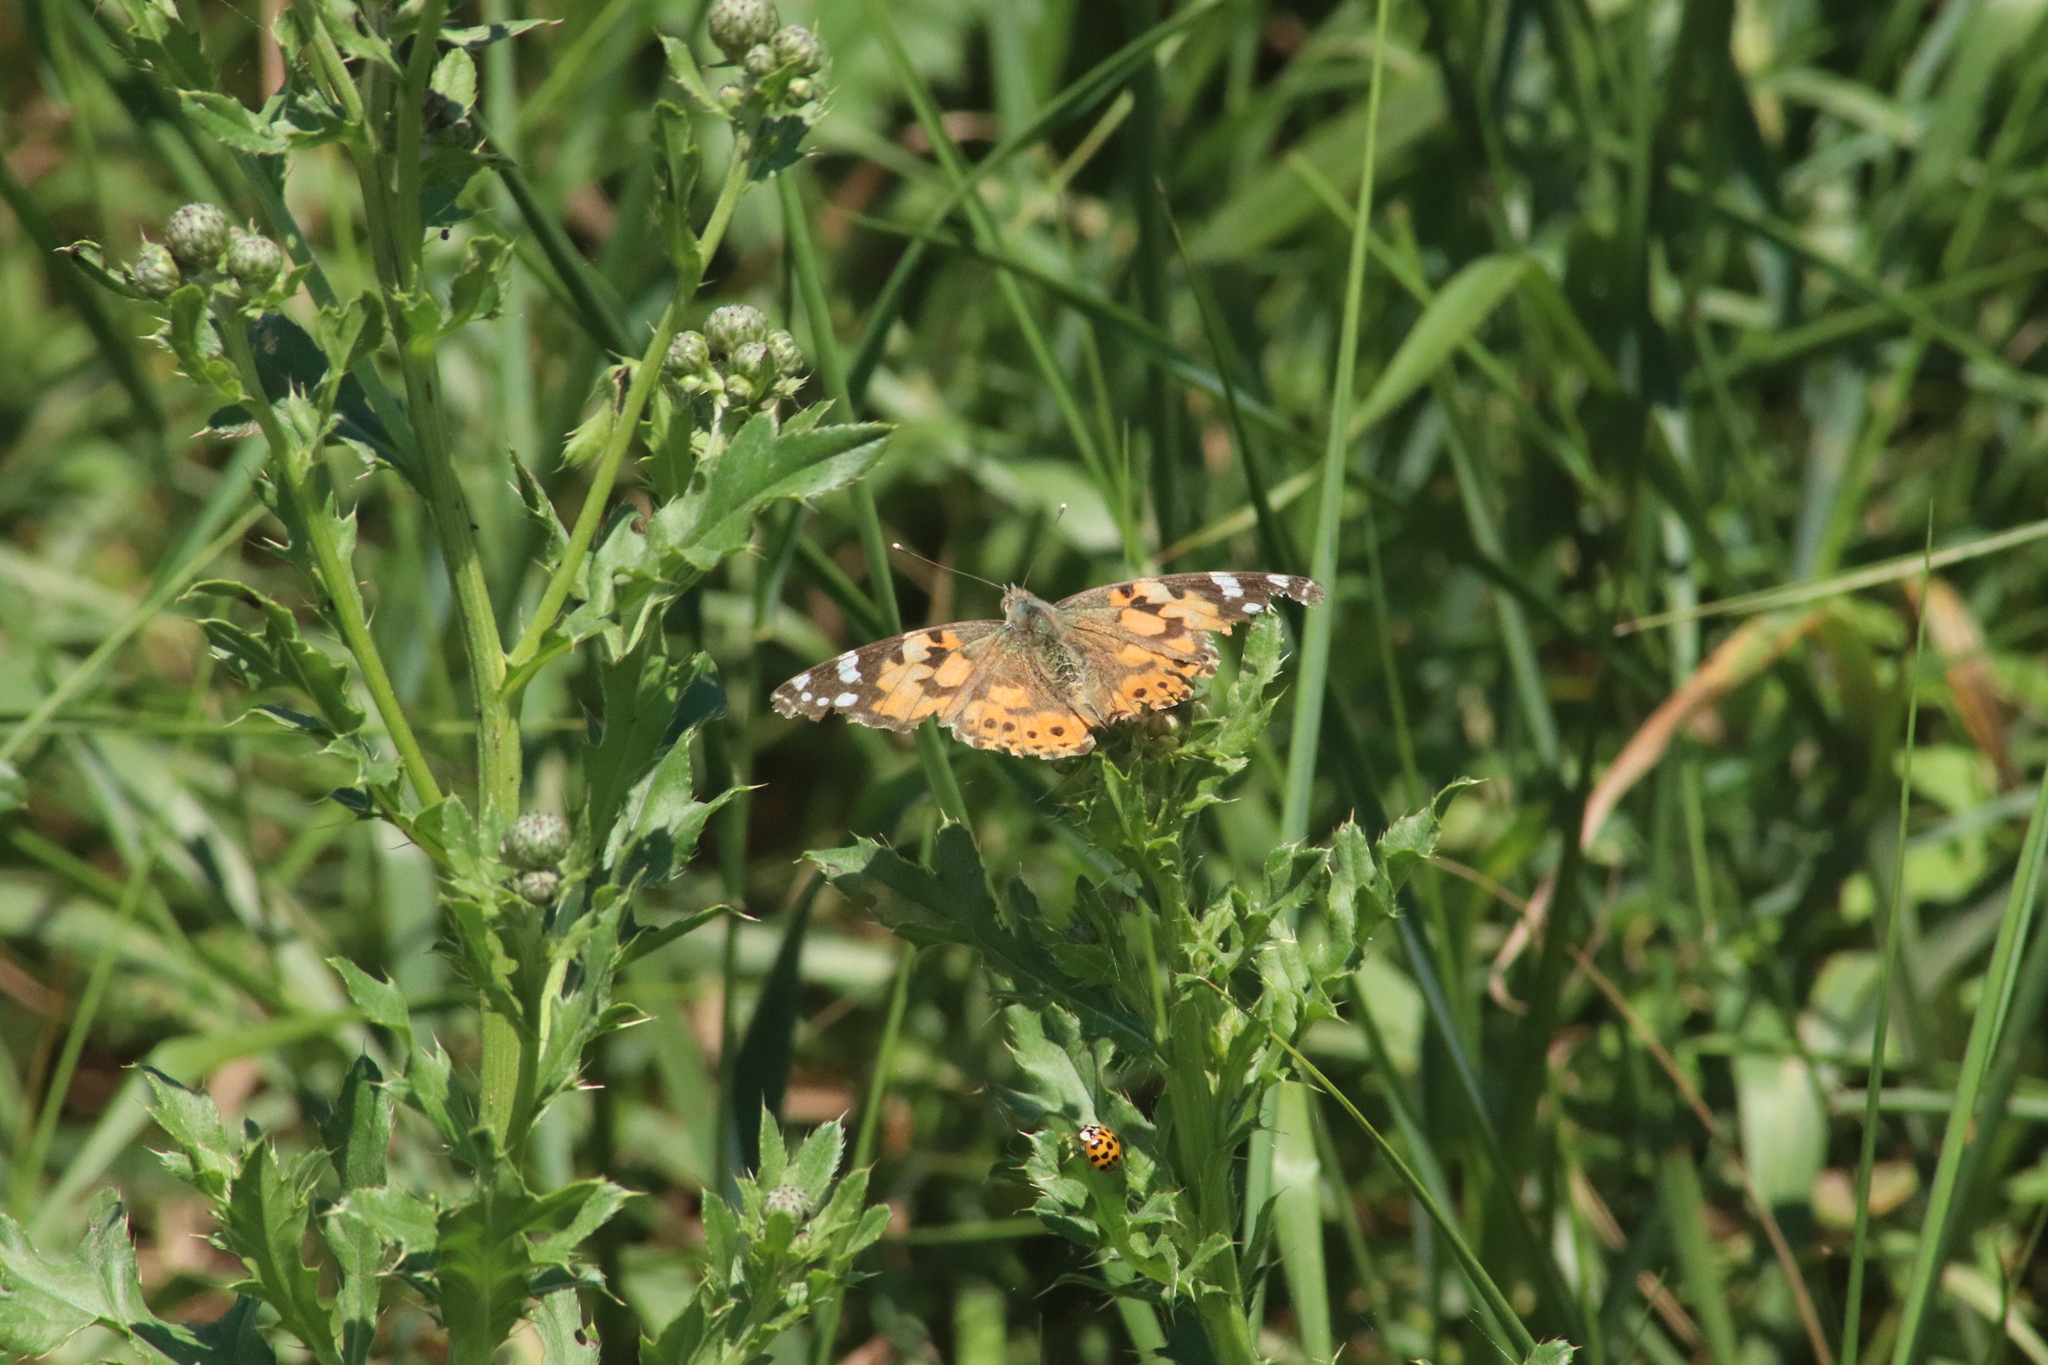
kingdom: Animalia
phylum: Arthropoda
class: Insecta
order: Lepidoptera
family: Nymphalidae
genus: Vanessa
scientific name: Vanessa cardui
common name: Painted lady
